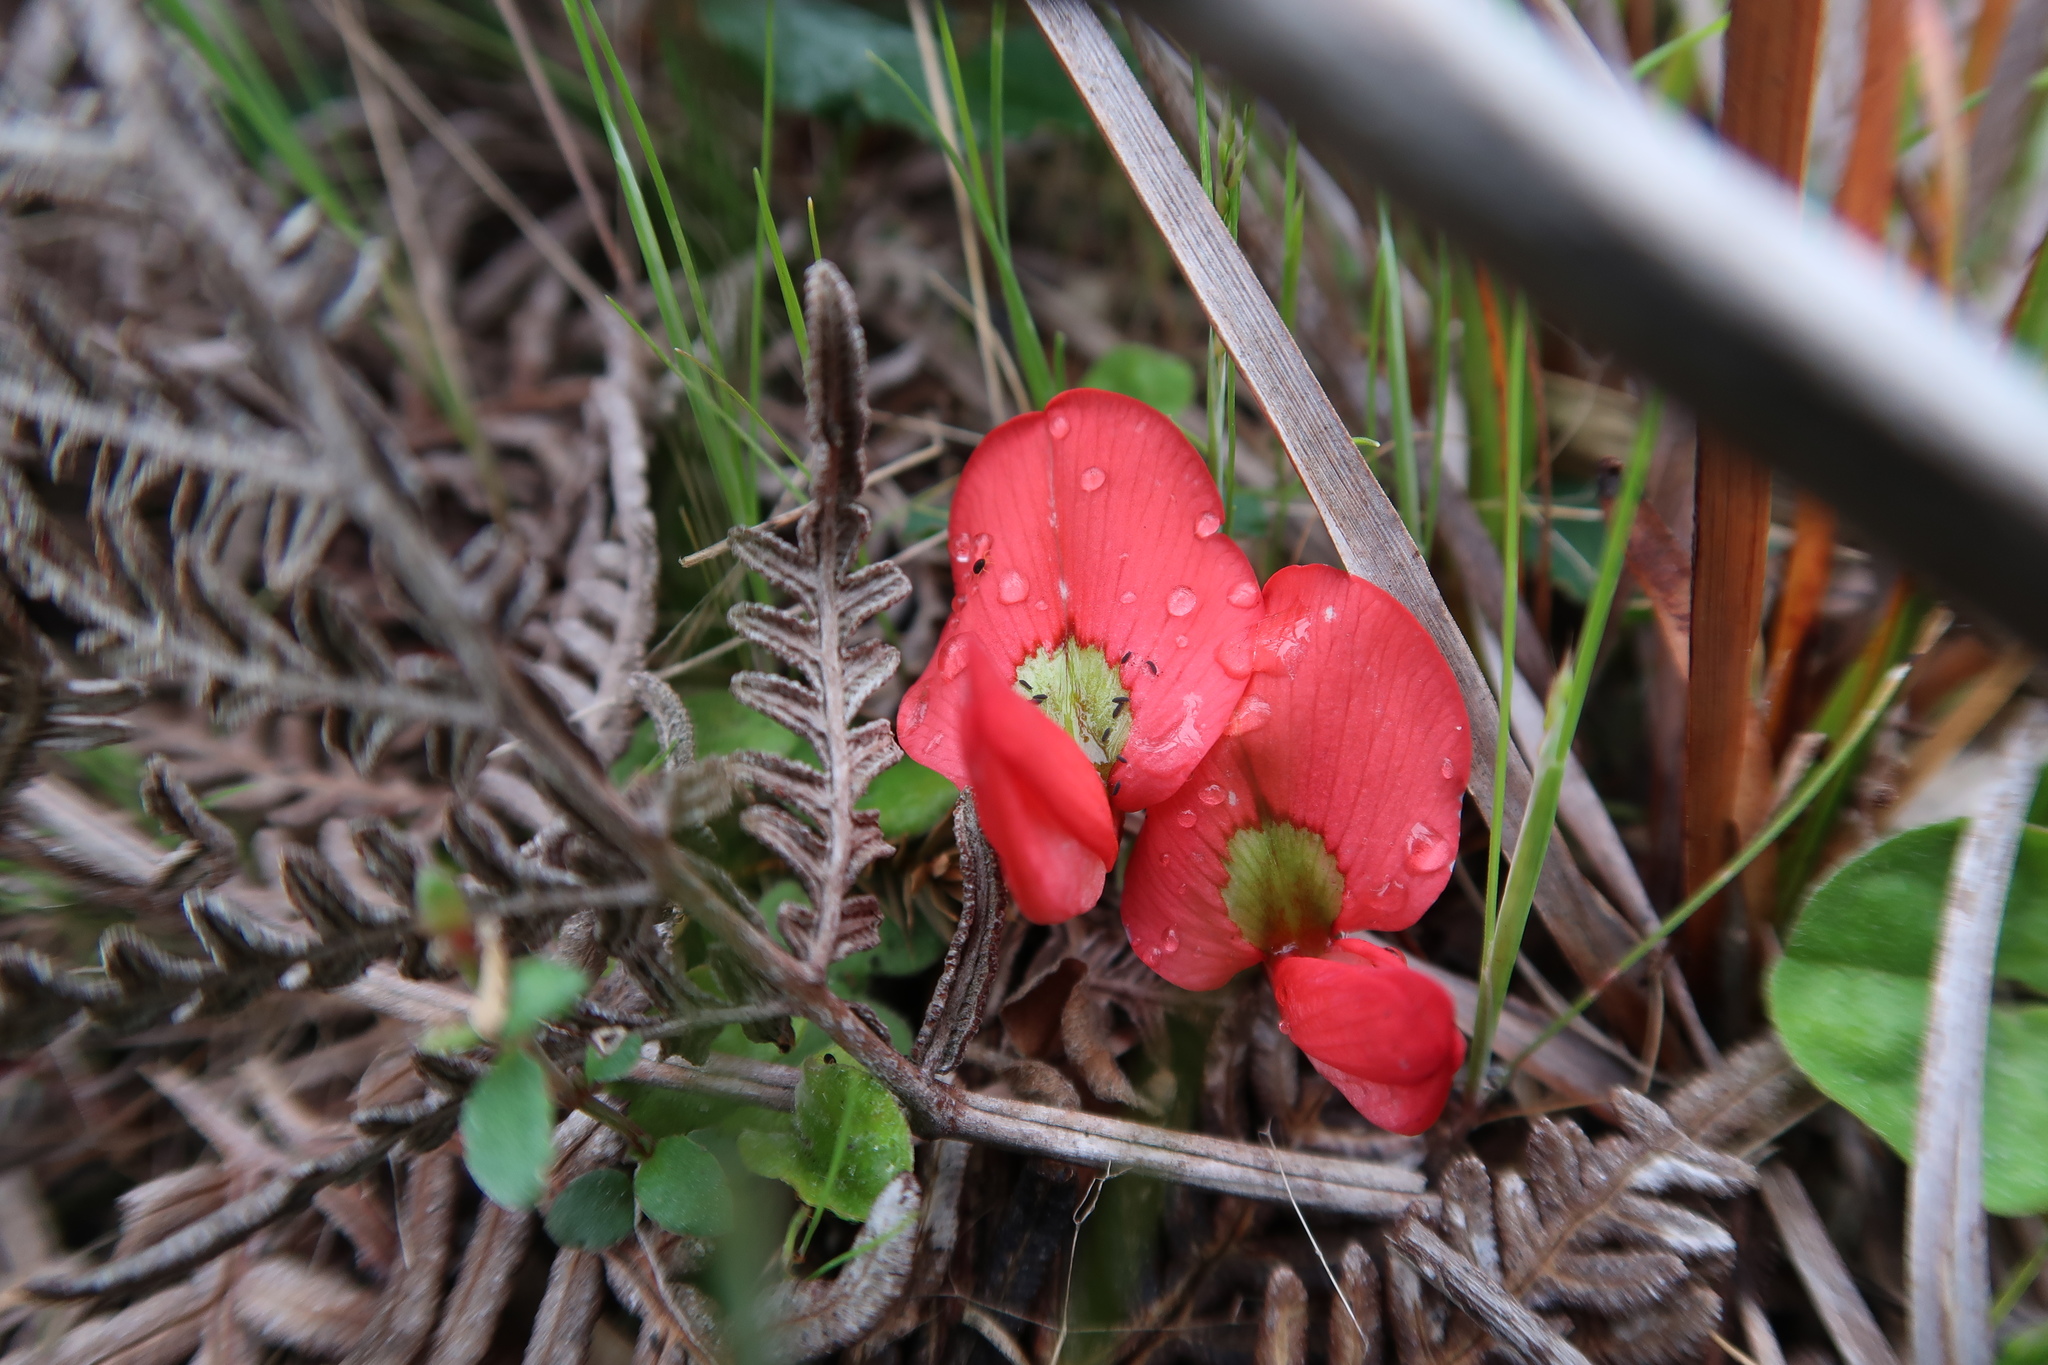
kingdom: Plantae
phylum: Tracheophyta
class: Magnoliopsida
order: Fabales
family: Fabaceae
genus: Kennedia
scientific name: Kennedia prostrata
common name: Running-postman
